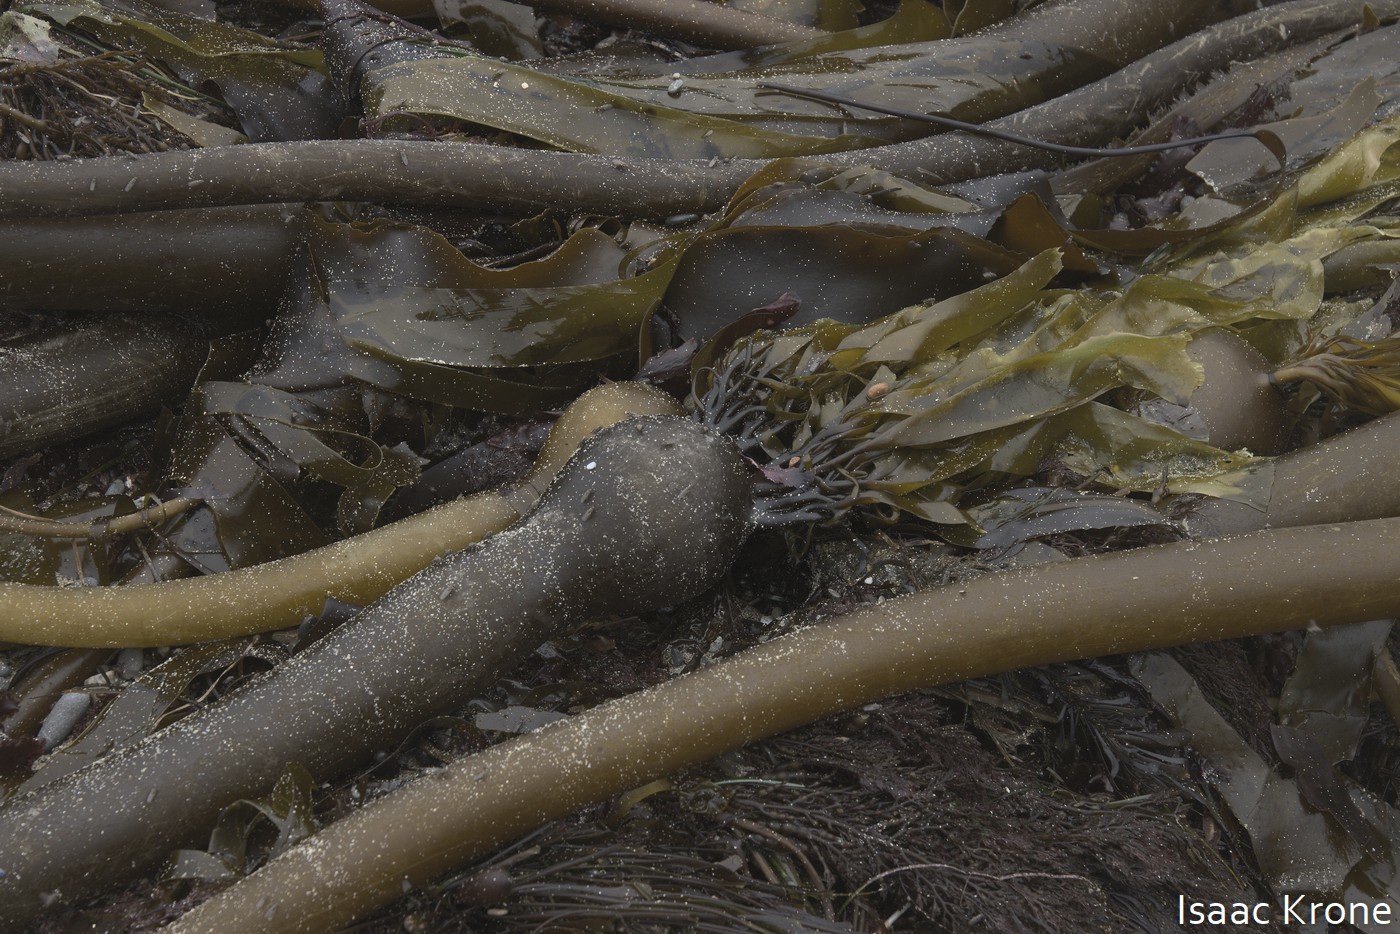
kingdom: Chromista
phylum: Ochrophyta
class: Phaeophyceae
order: Laminariales
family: Laminariaceae
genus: Nereocystis
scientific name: Nereocystis luetkeana
